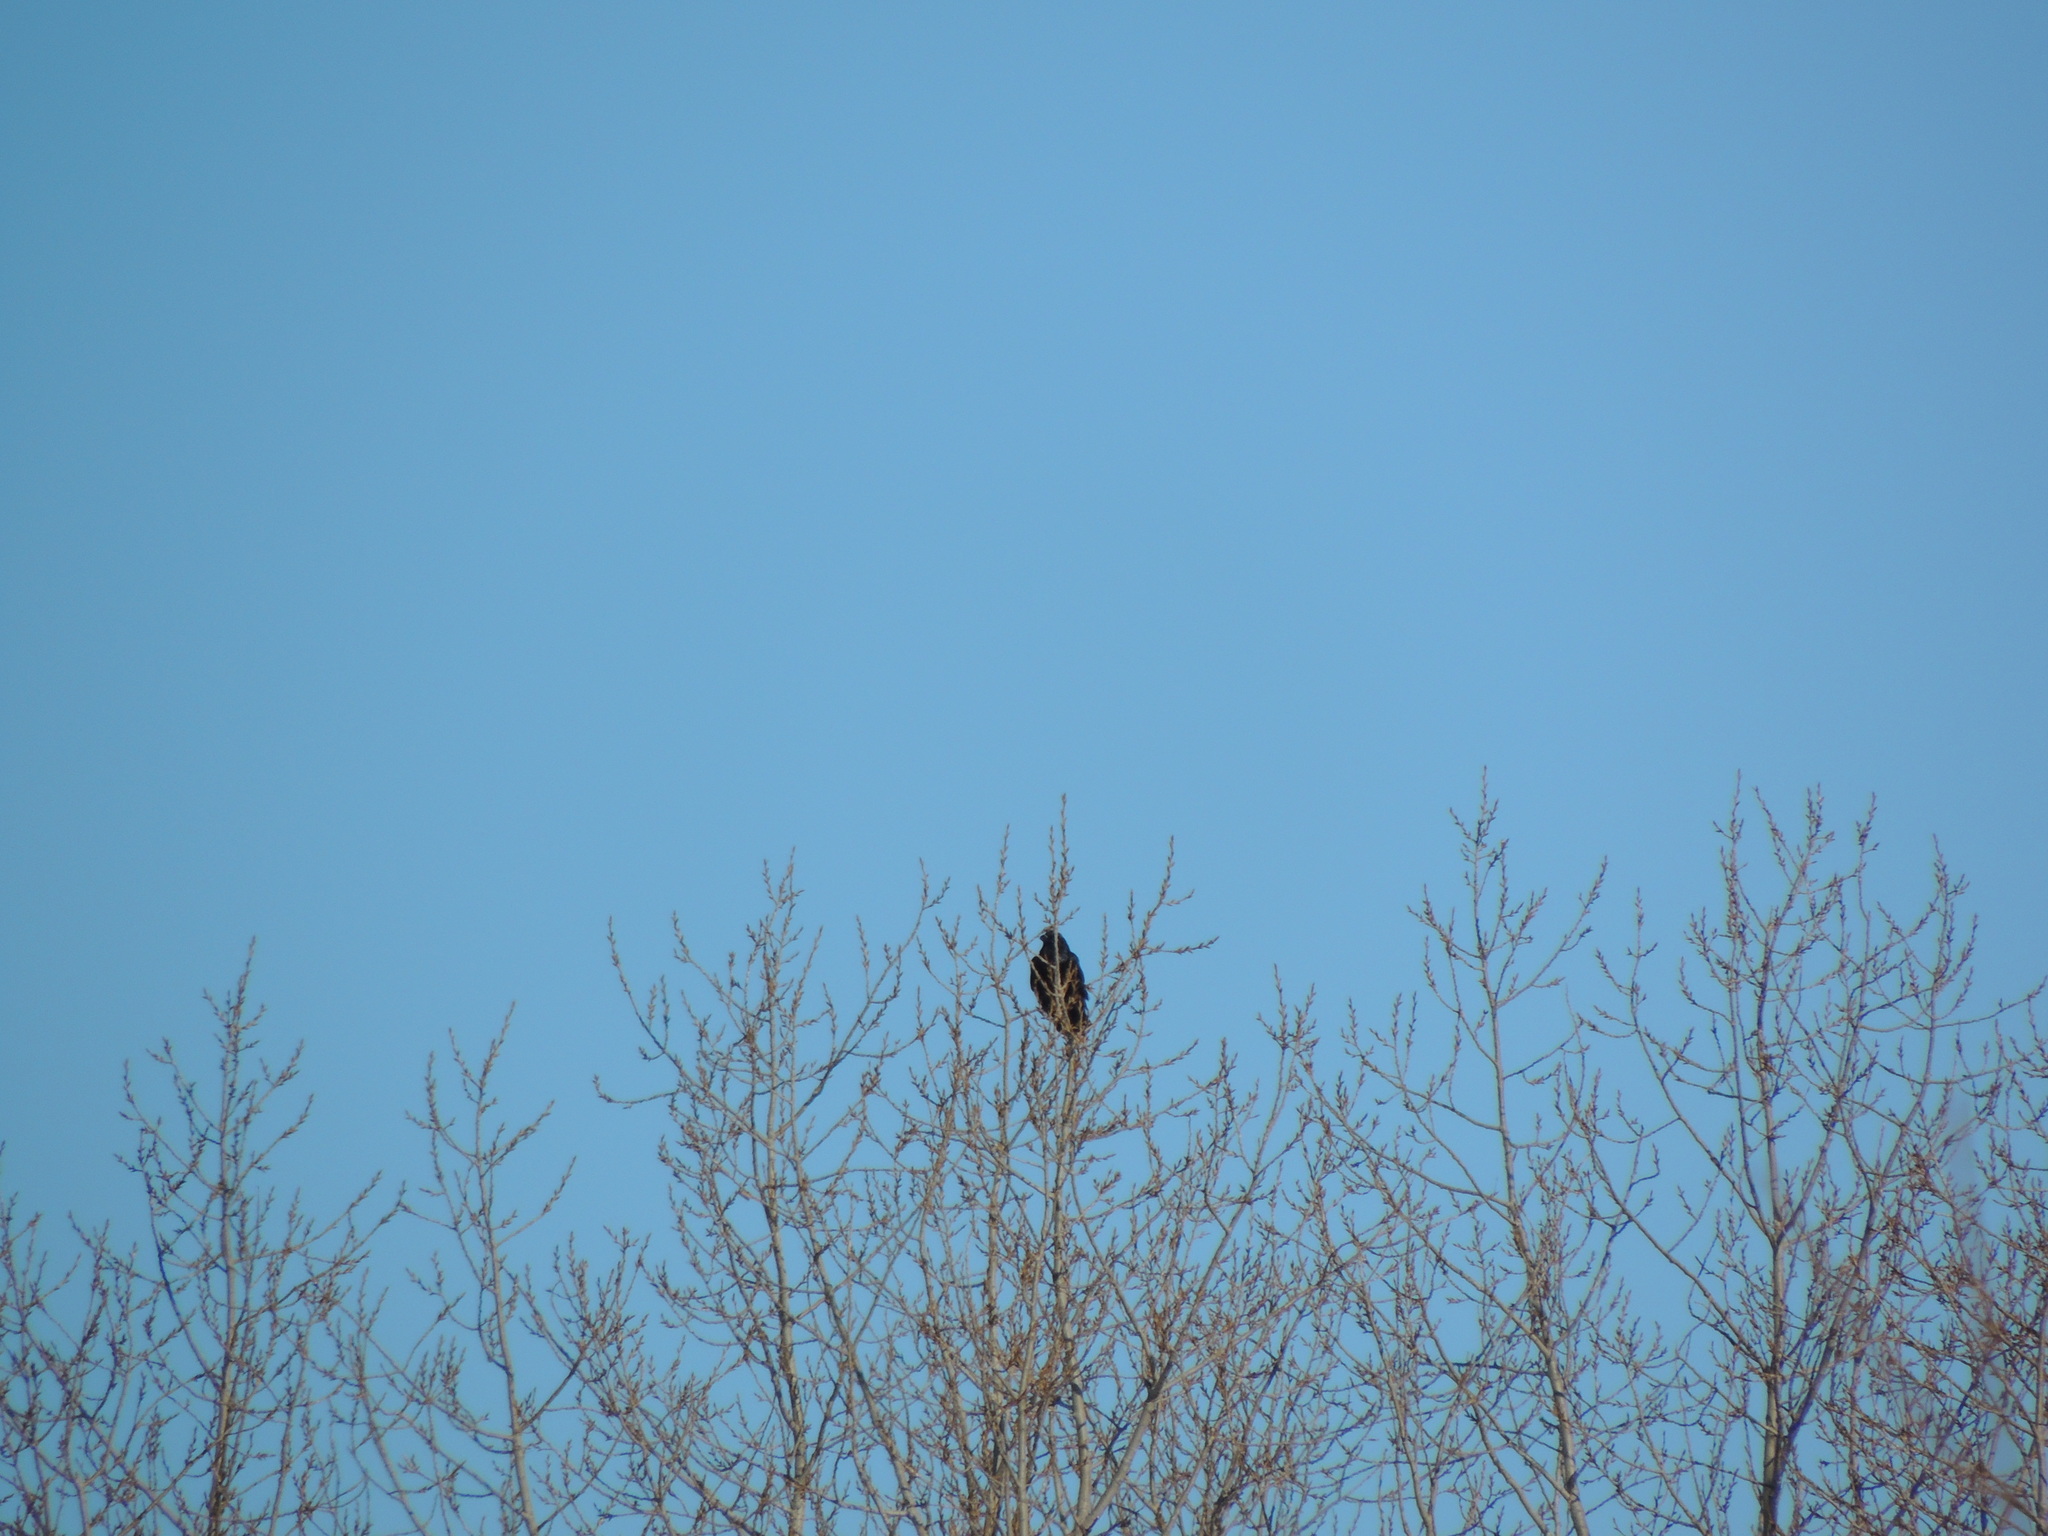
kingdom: Animalia
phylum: Chordata
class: Aves
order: Passeriformes
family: Corvidae
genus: Corvus
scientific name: Corvus brachyrhynchos
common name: American crow
